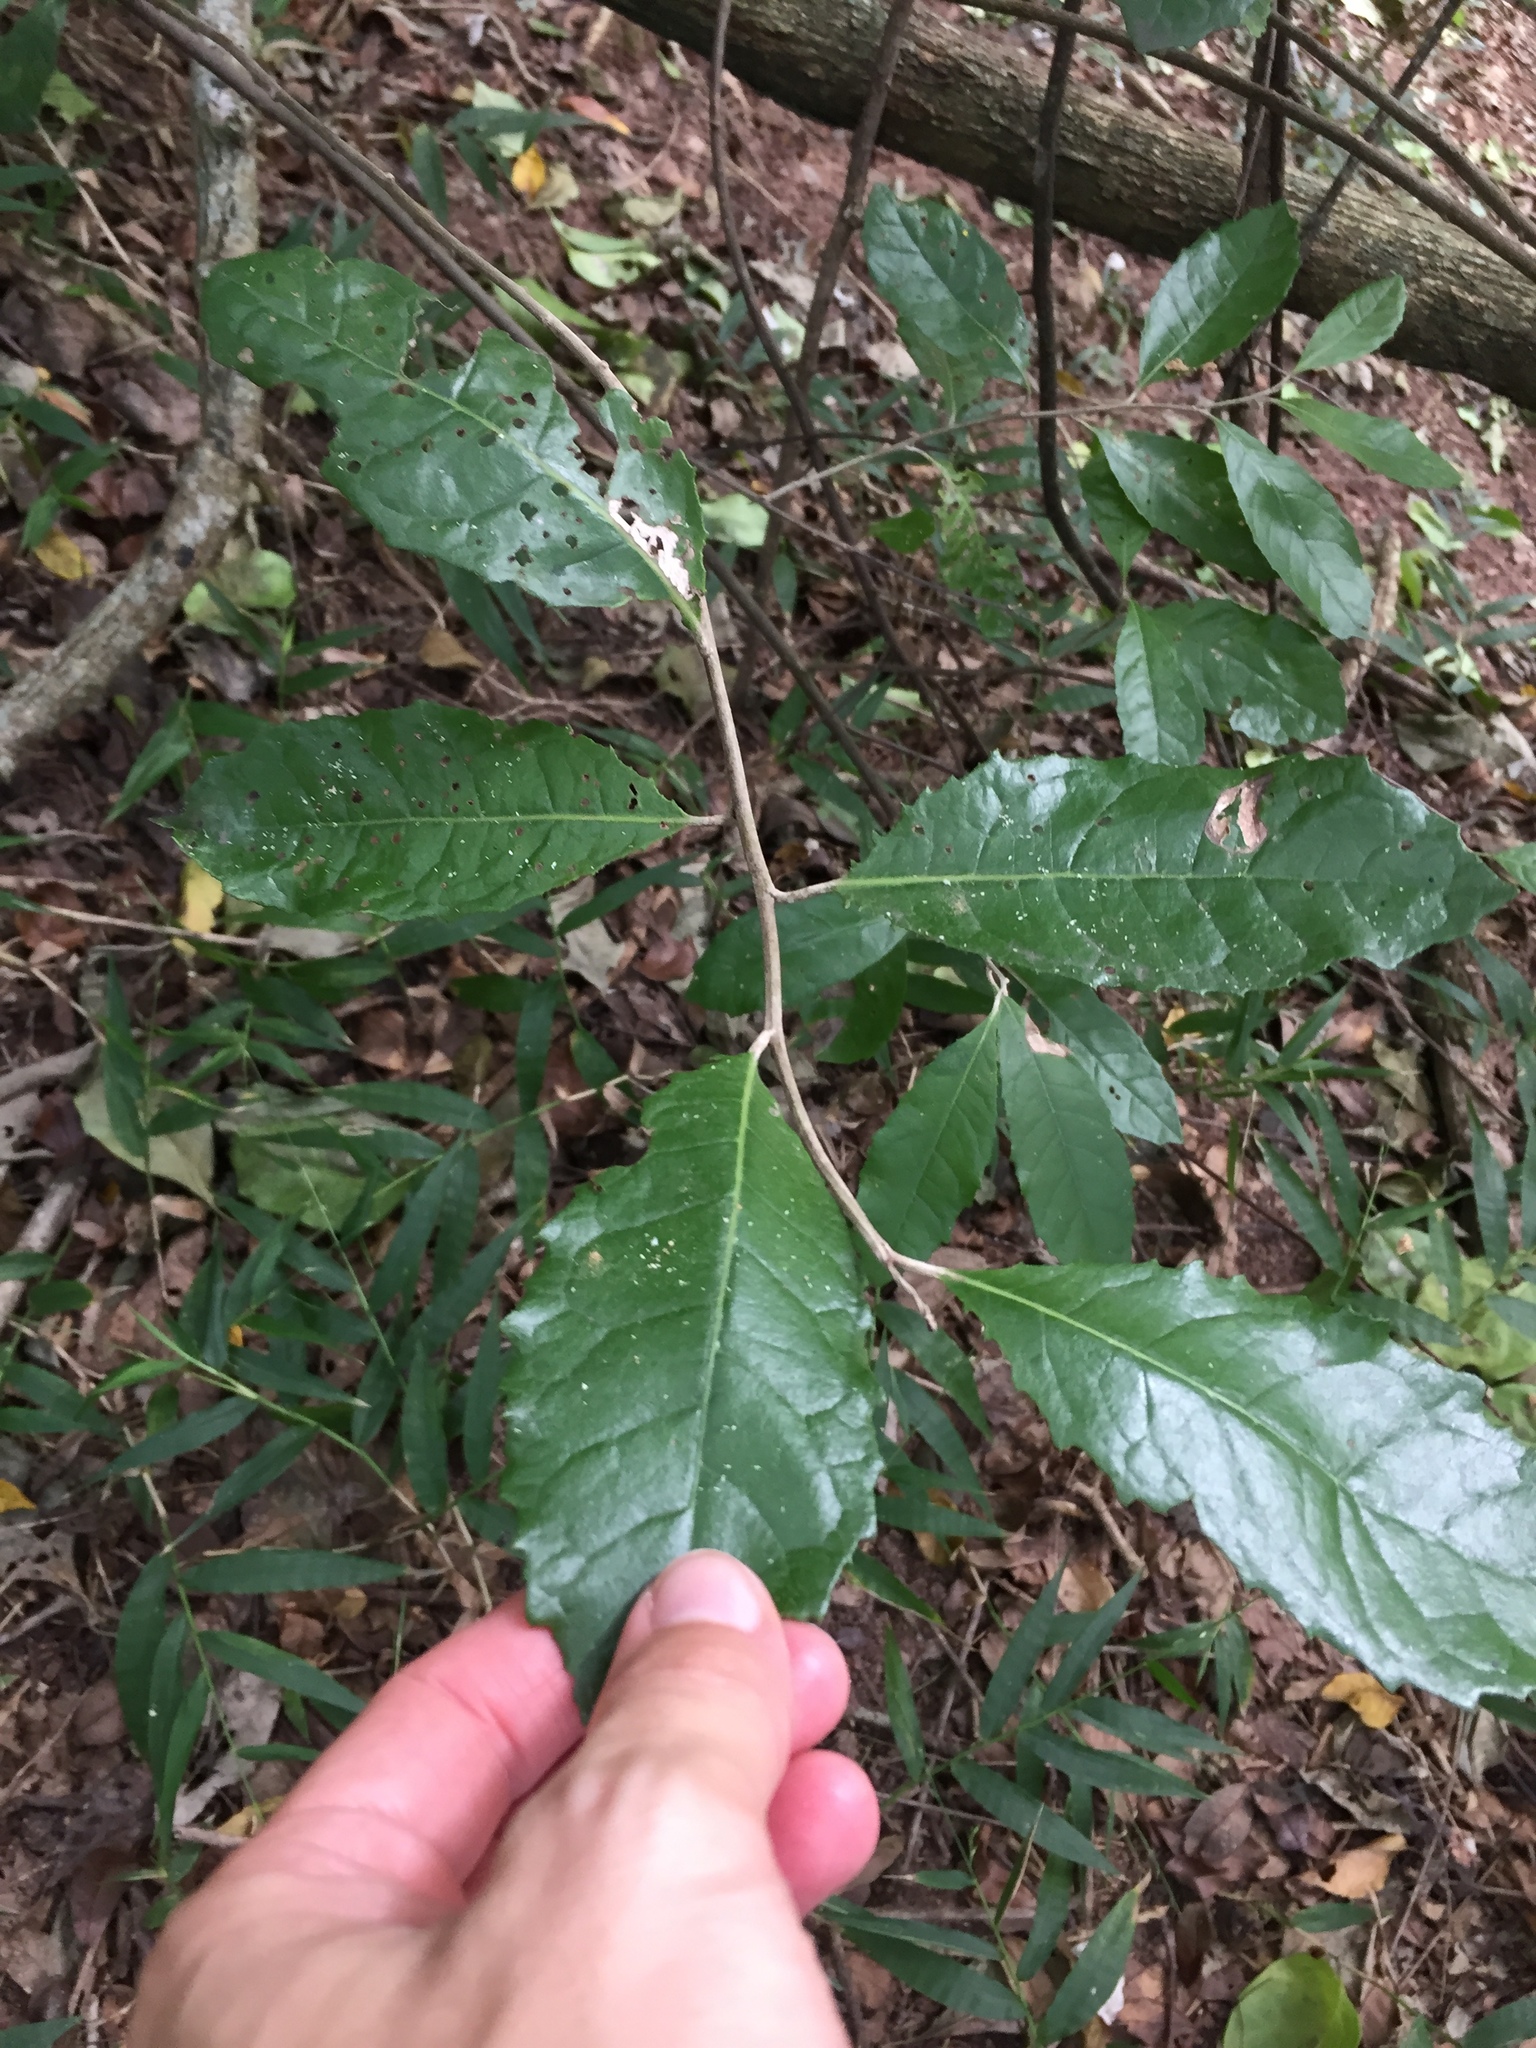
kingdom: Plantae
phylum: Tracheophyta
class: Magnoliopsida
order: Asterales
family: Asteraceae
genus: Brachylaena
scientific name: Brachylaena discolor
